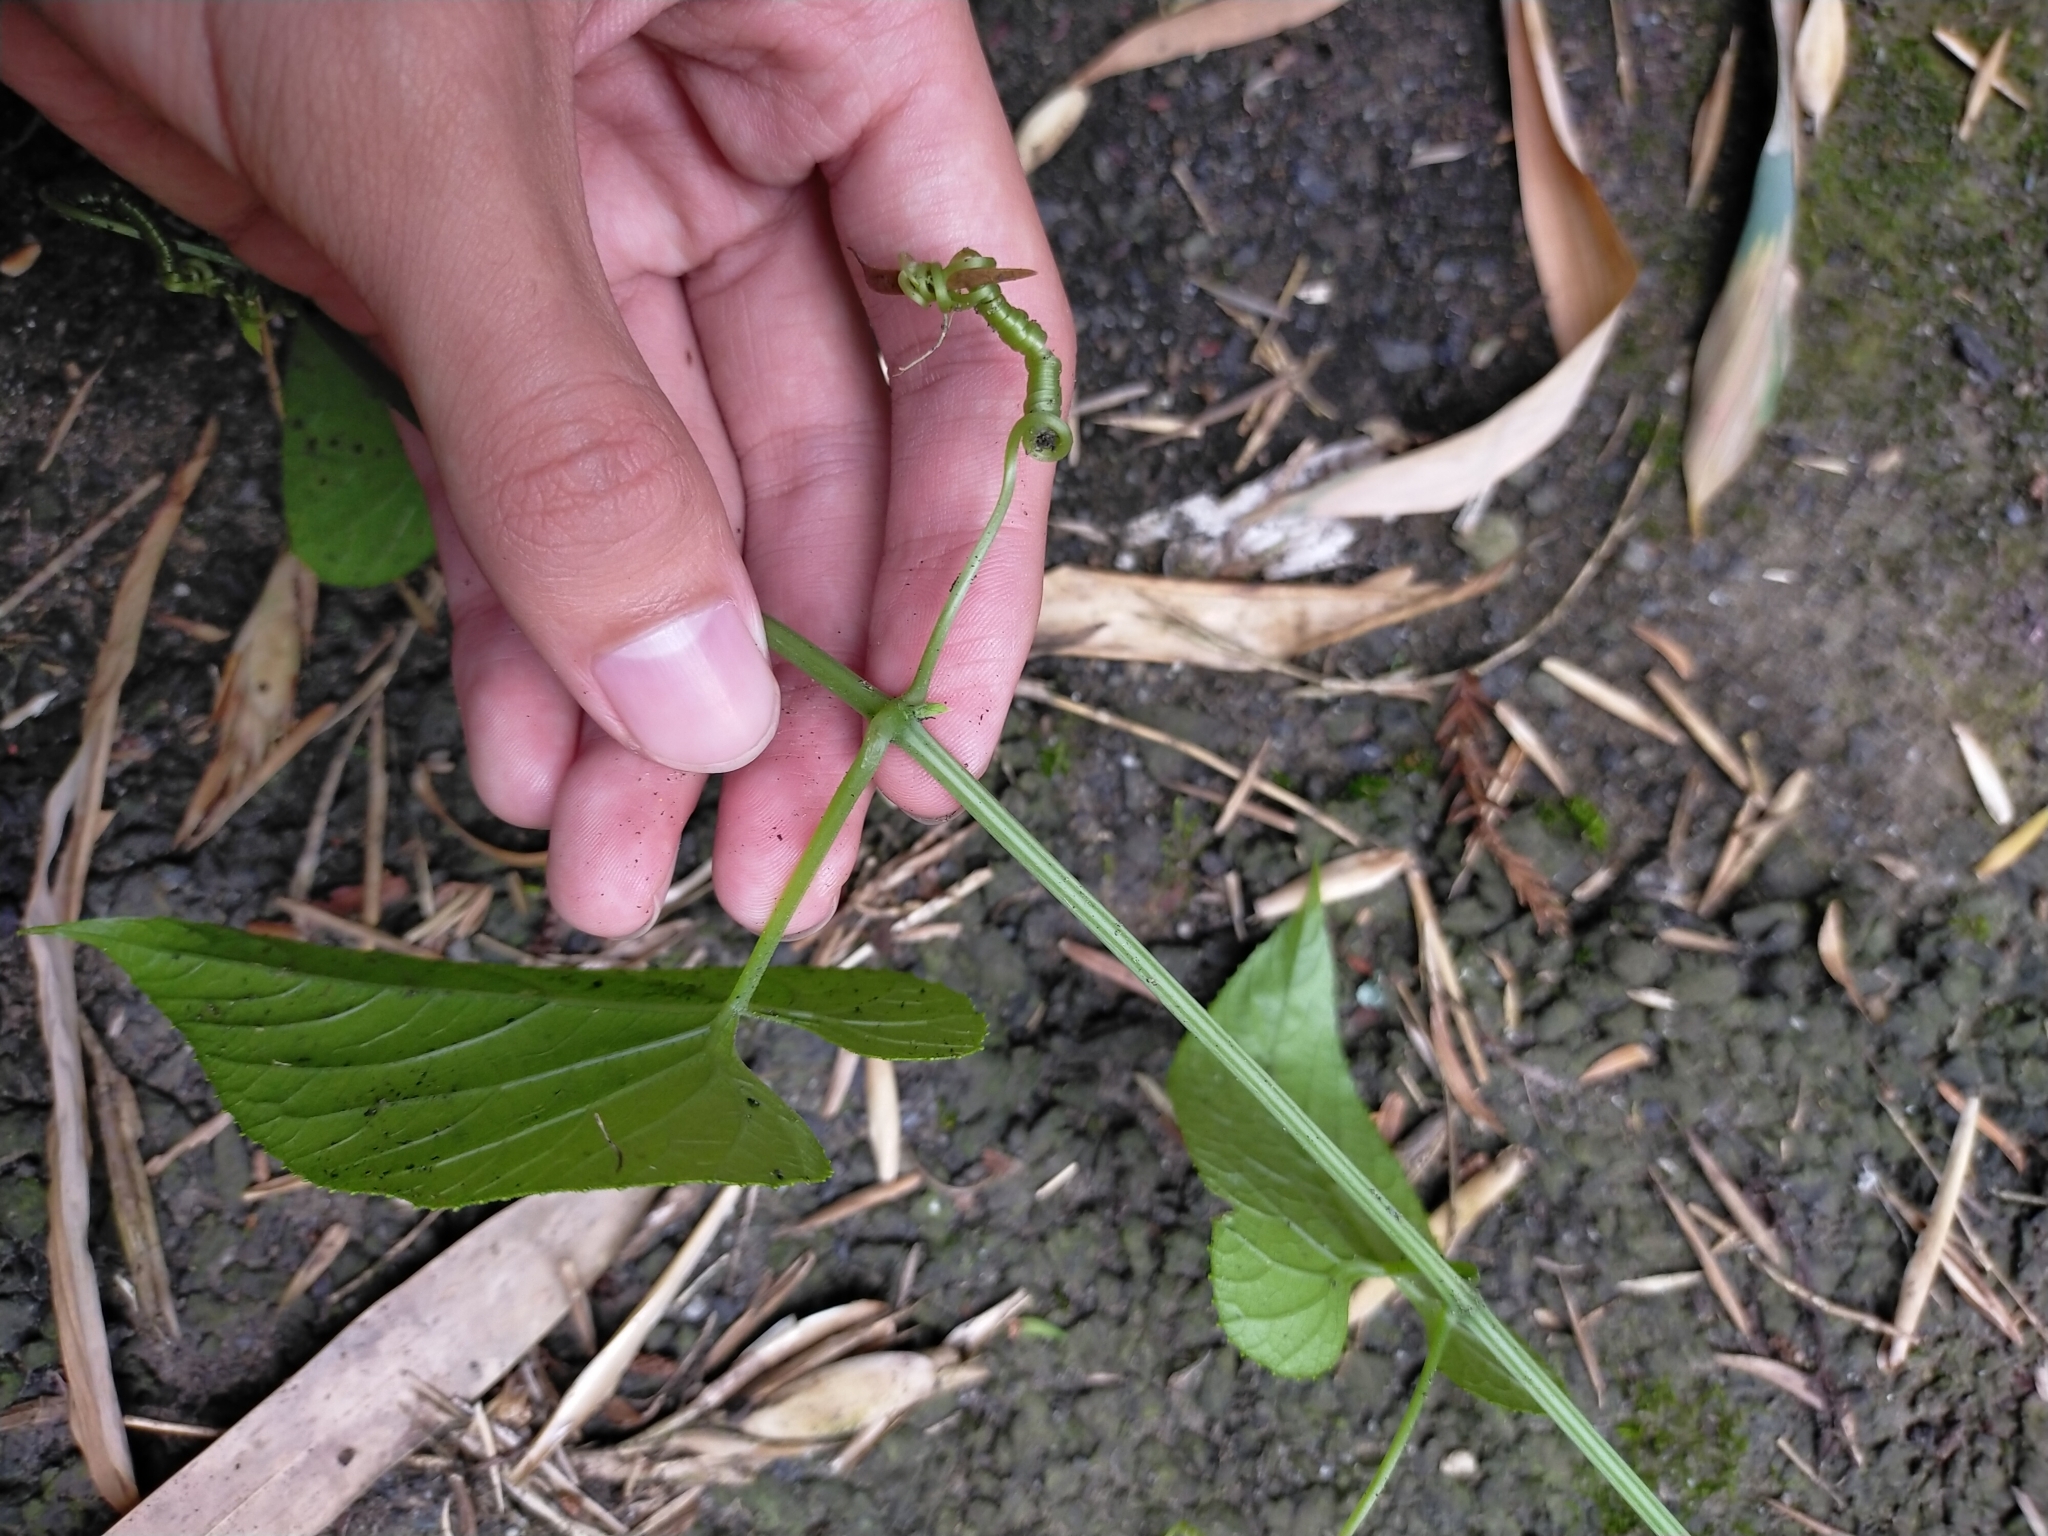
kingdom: Plantae
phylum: Tracheophyta
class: Magnoliopsida
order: Cucurbitales
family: Cucurbitaceae
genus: Thladiantha
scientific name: Thladiantha punctata
